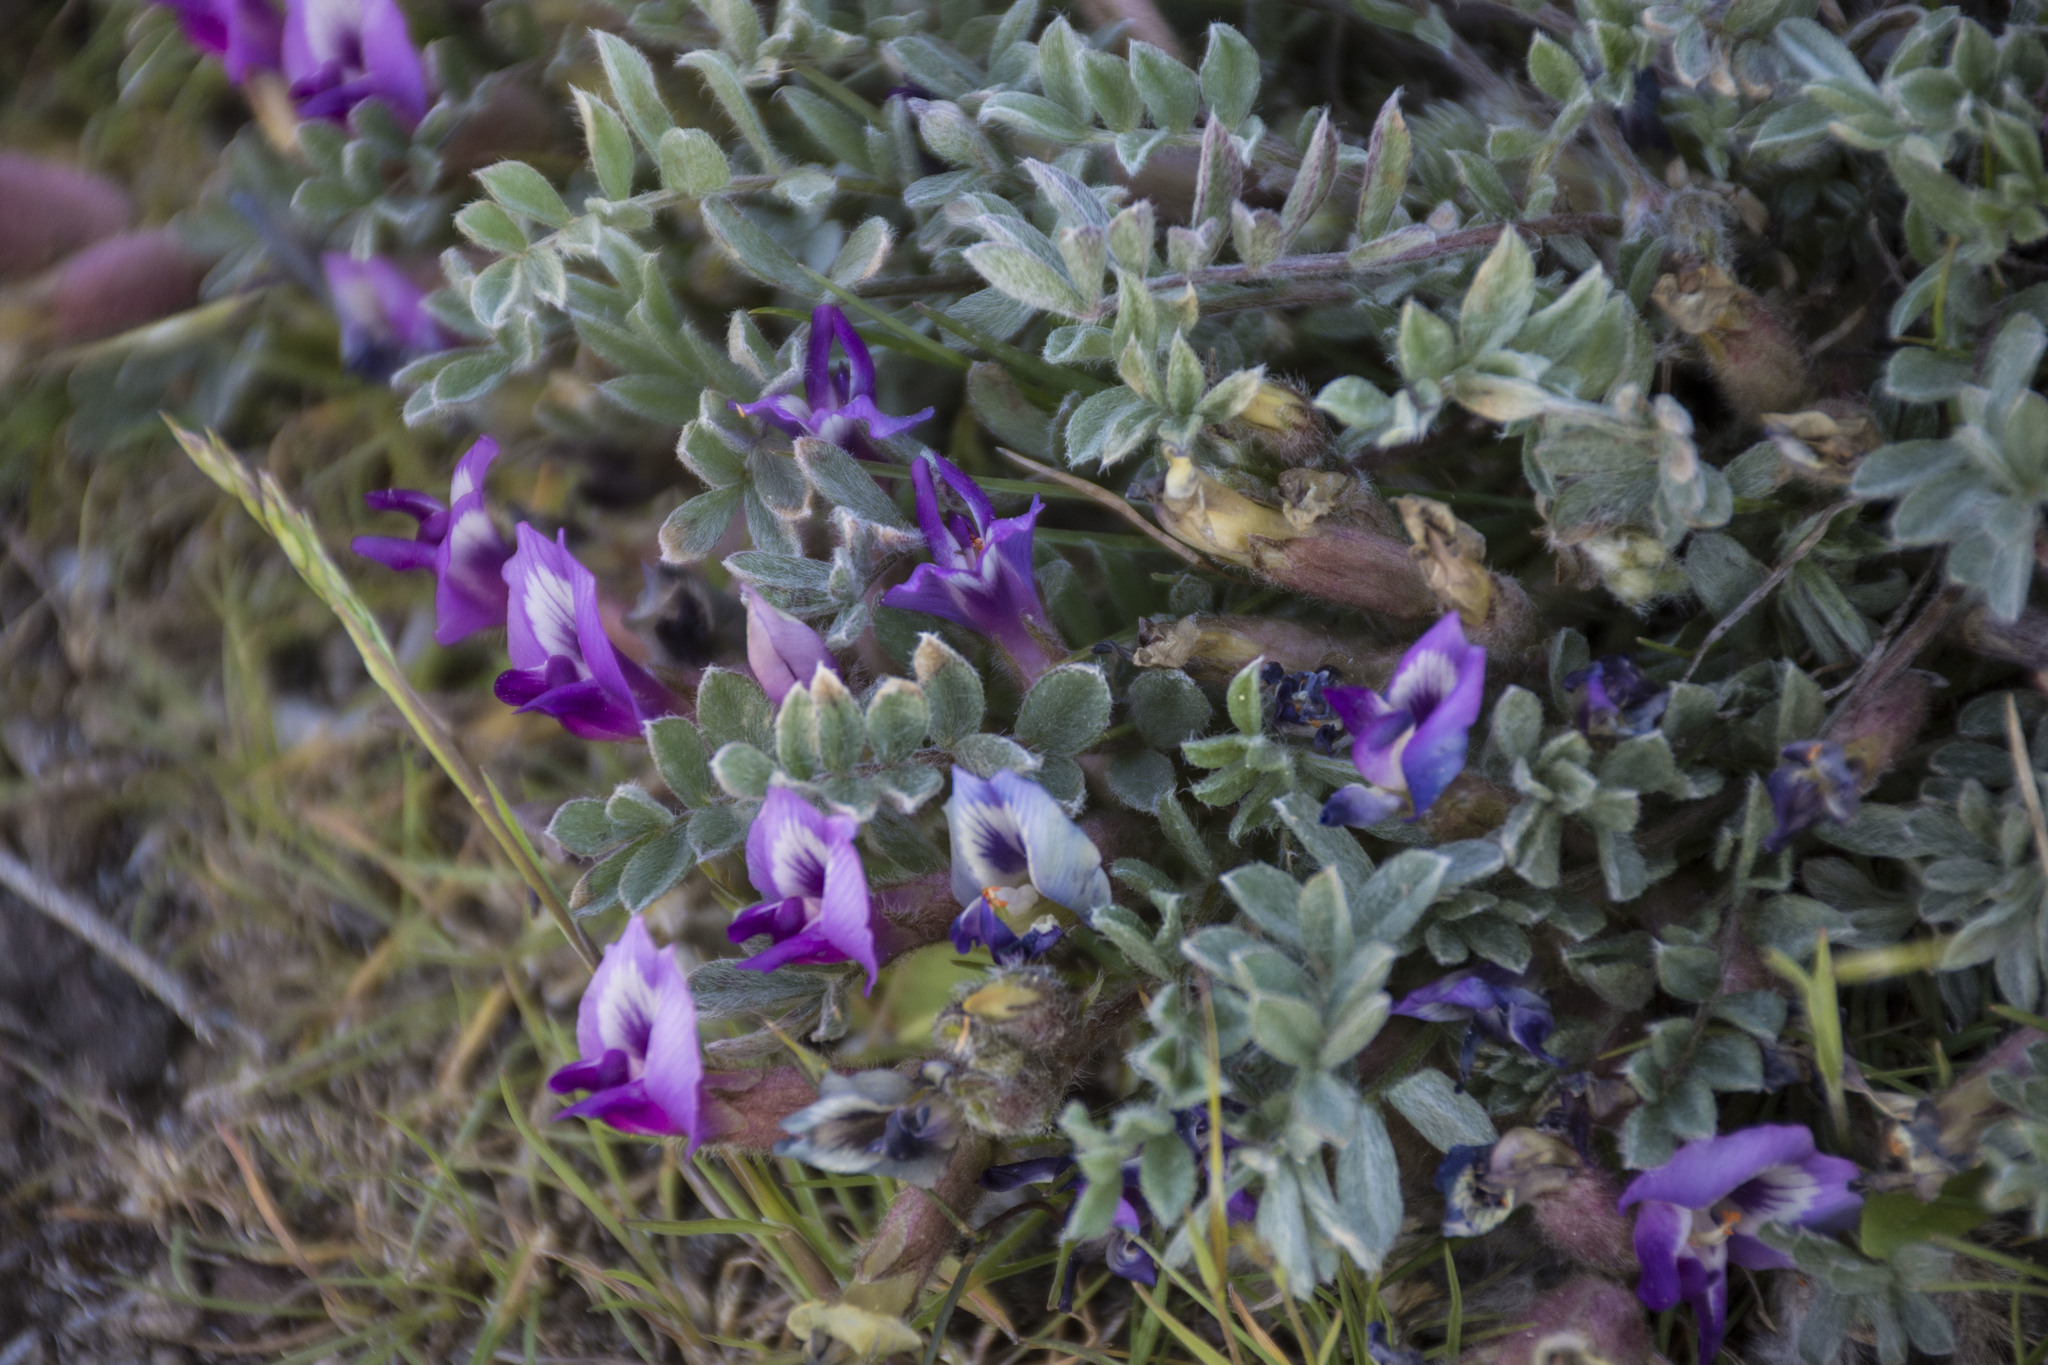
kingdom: Plantae
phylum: Tracheophyta
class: Magnoliopsida
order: Fabales
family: Fabaceae
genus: Astragalus
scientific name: Astragalus purshii
